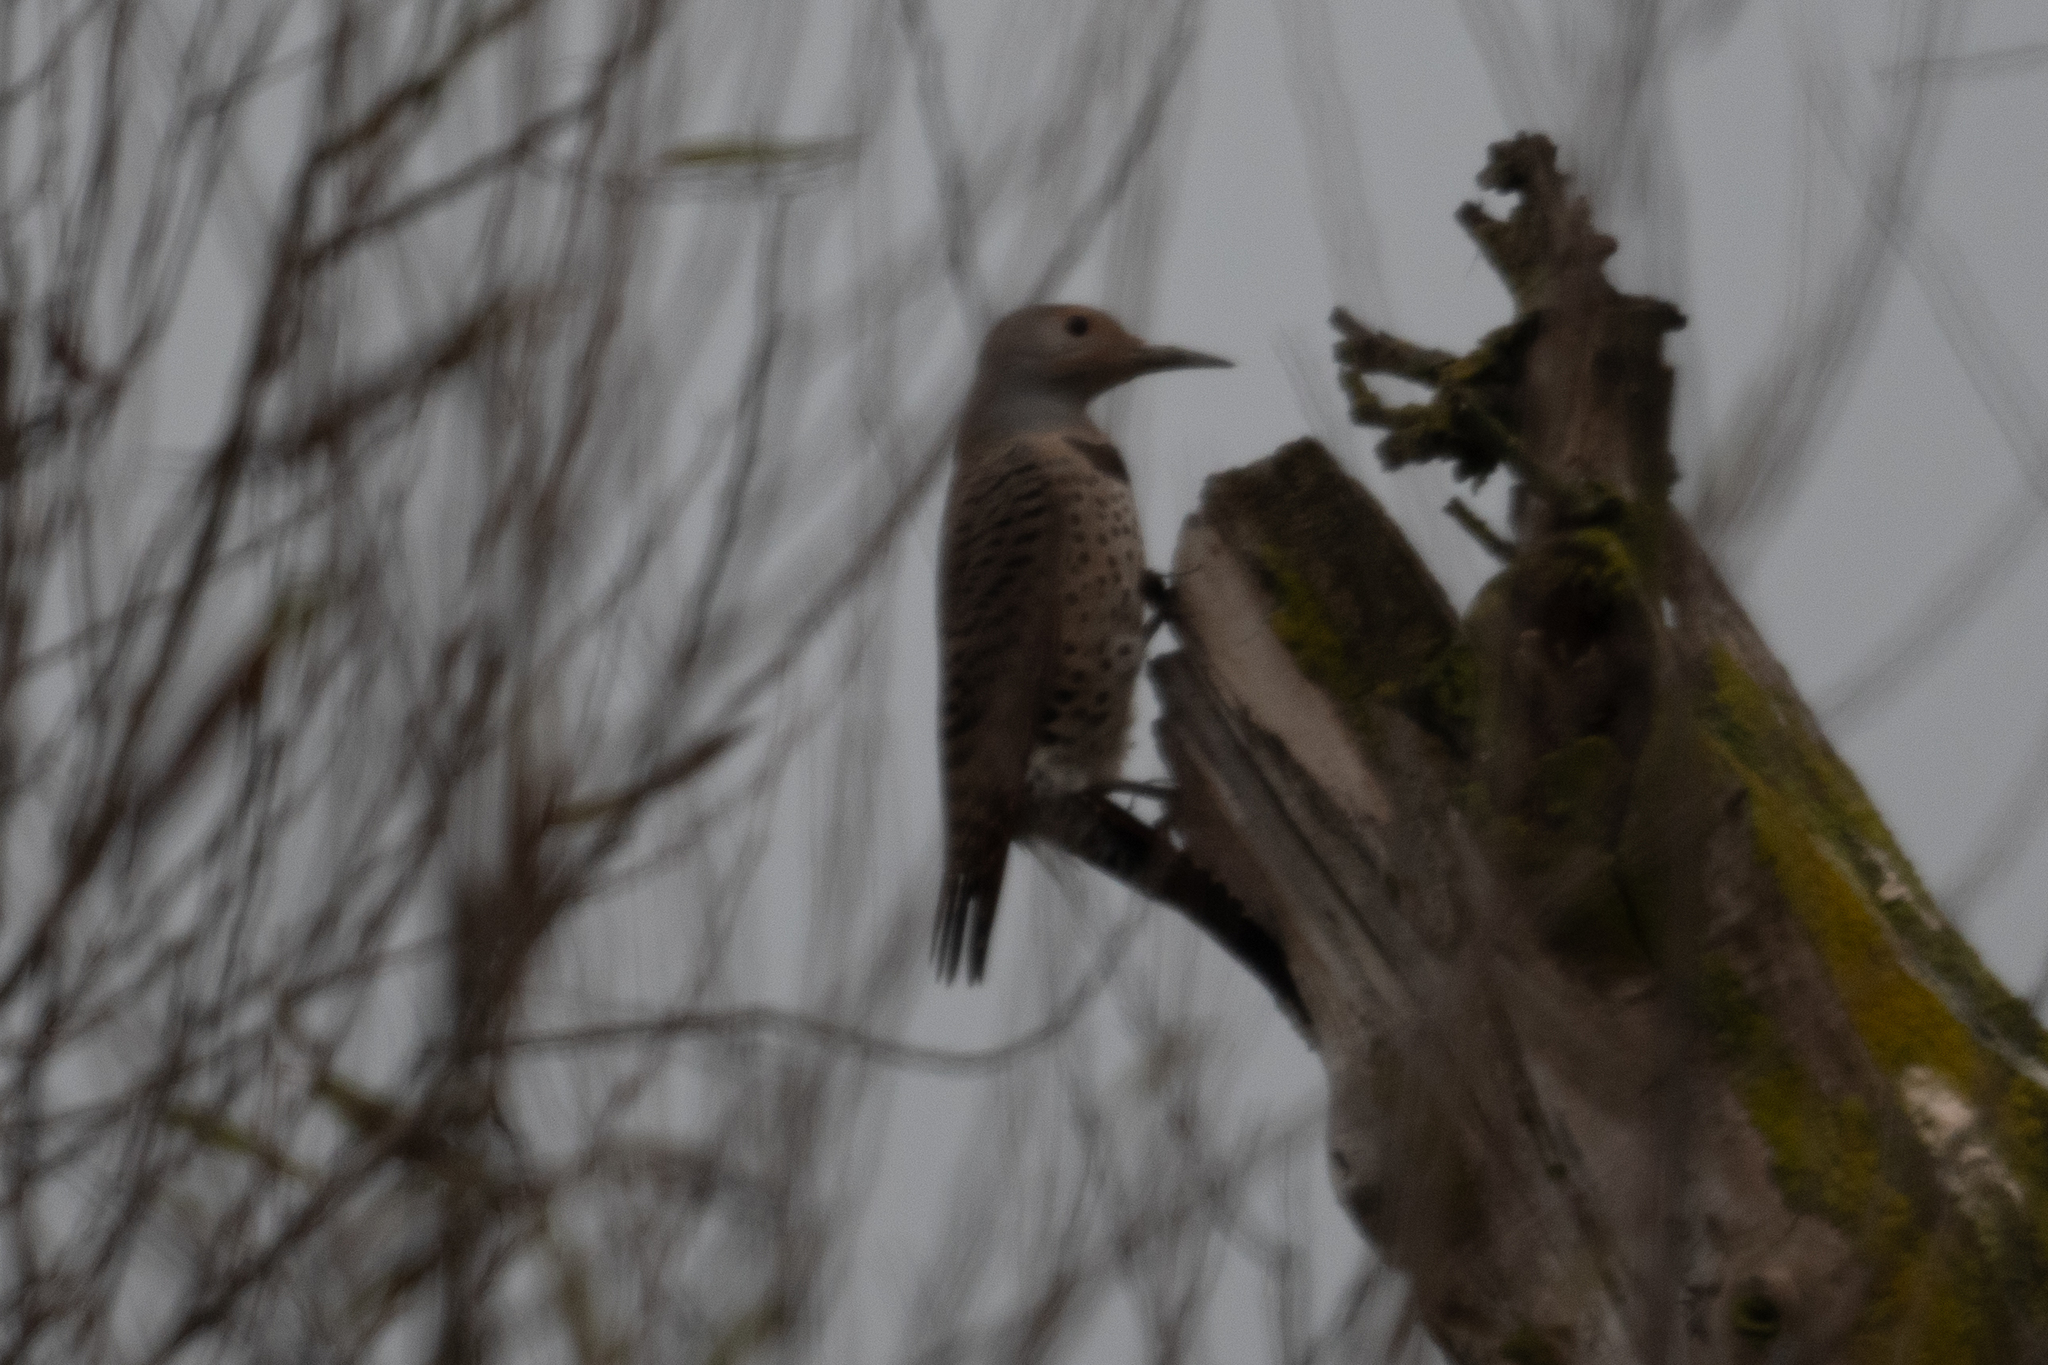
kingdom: Animalia
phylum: Chordata
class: Aves
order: Piciformes
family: Picidae
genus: Colaptes
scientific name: Colaptes auratus
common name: Northern flicker
